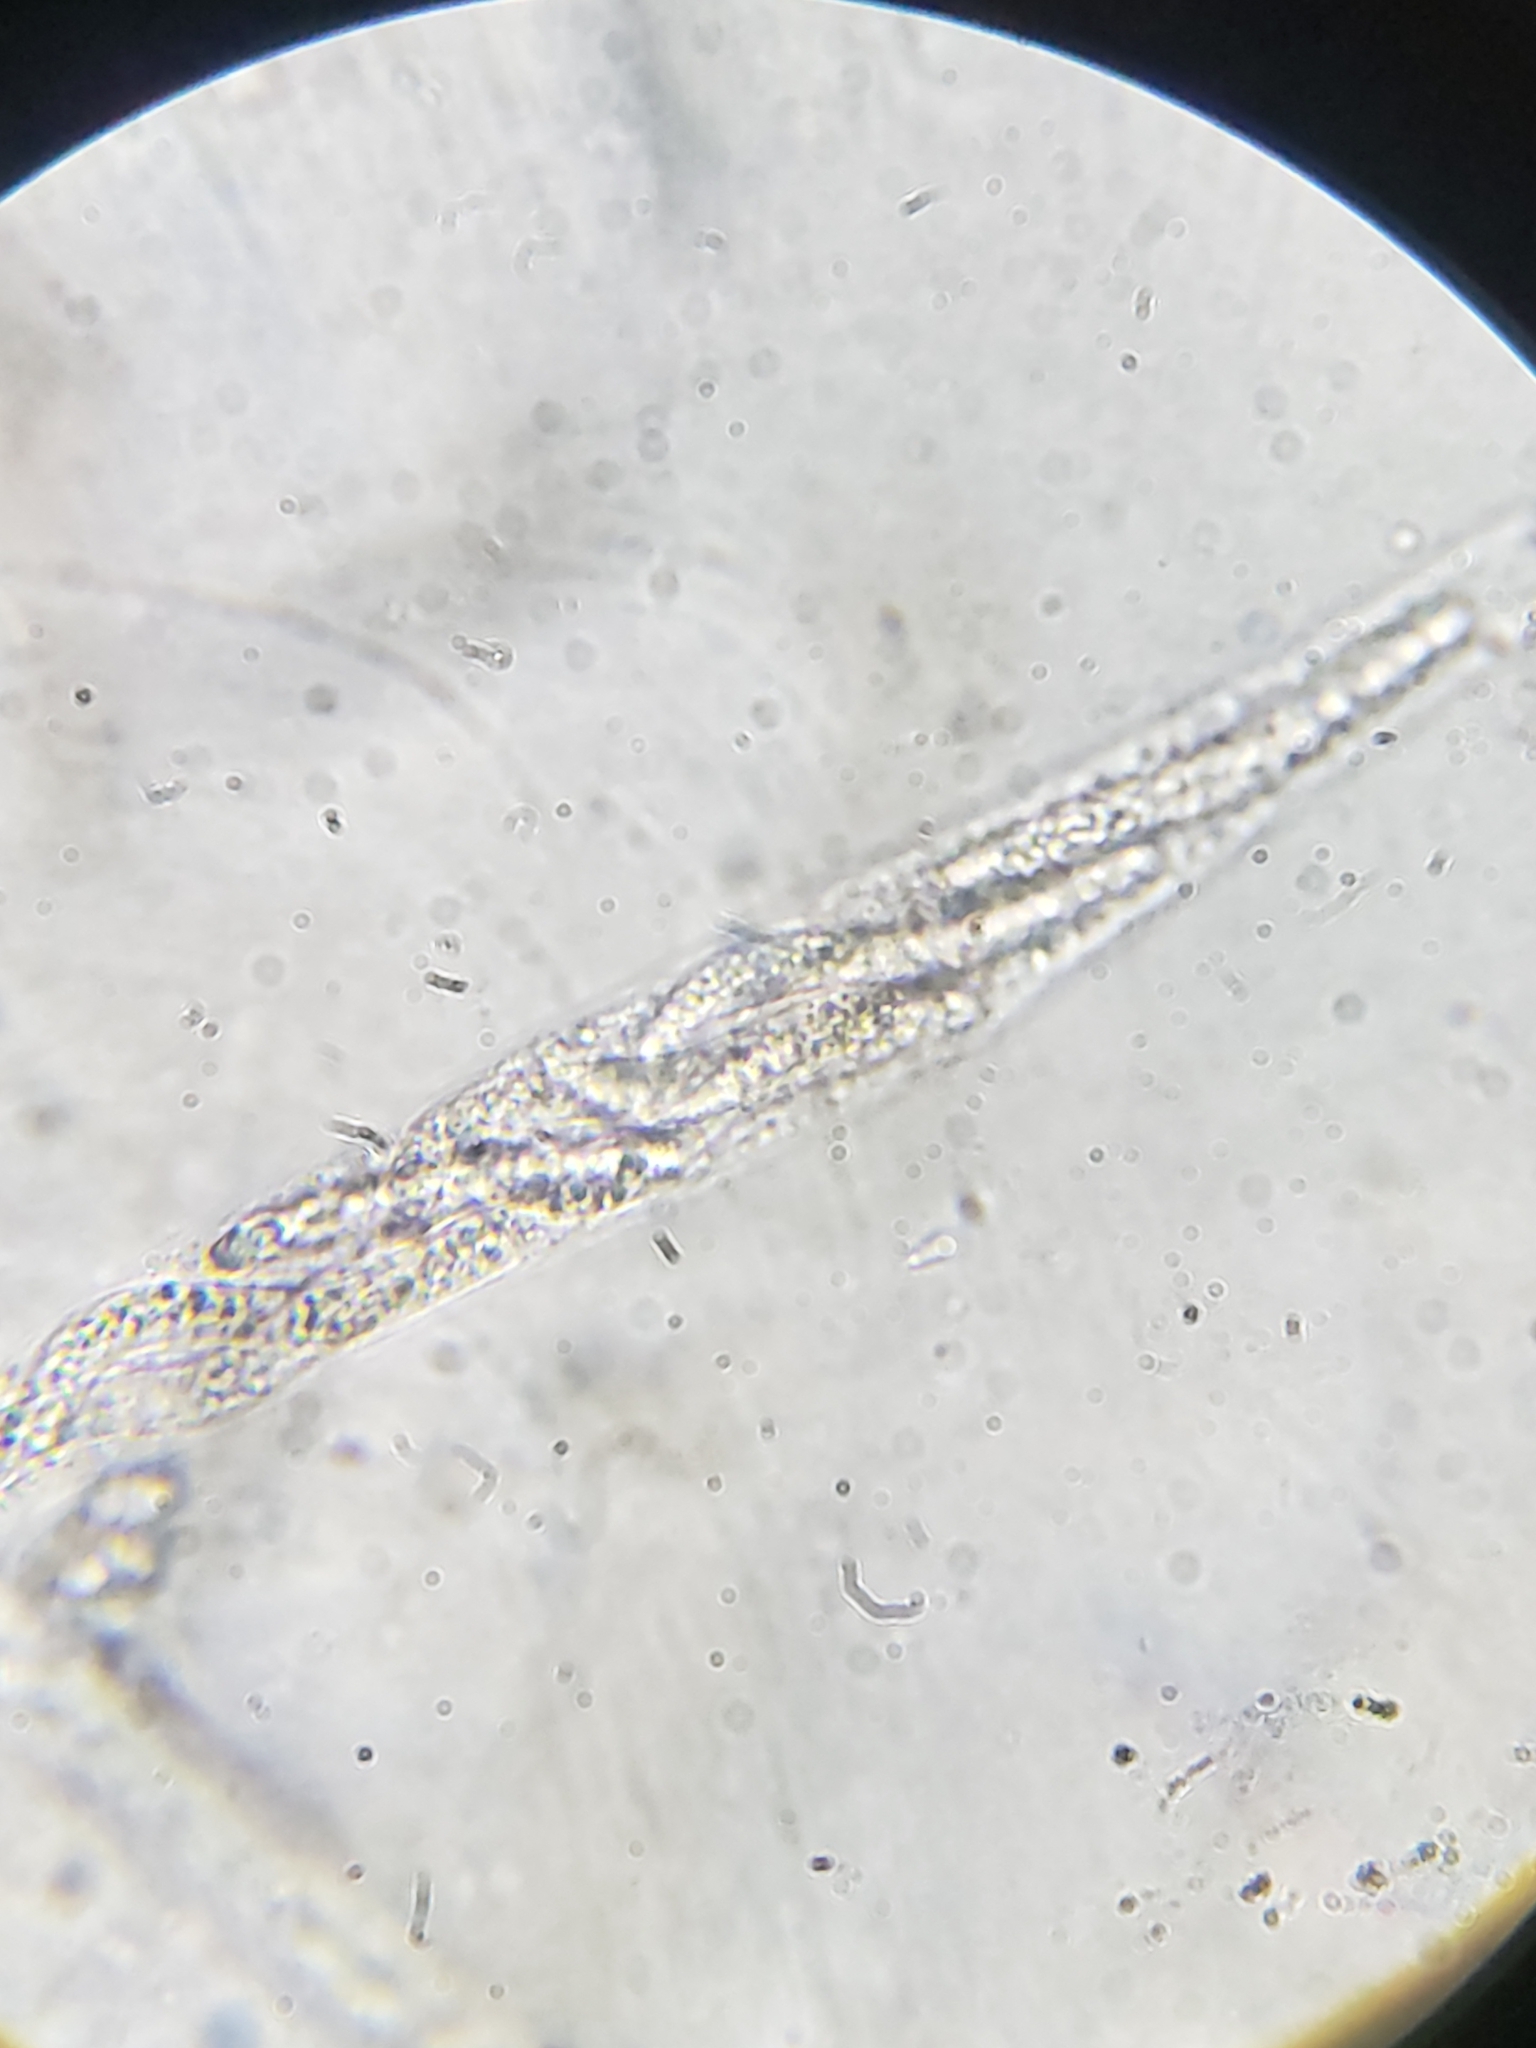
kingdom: Fungi
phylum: Ascomycota
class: Sordariomycetes
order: Sordariales
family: Lasiosphaeriaceae
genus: Lasiosphaeria
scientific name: Lasiosphaeria ovina
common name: Woolly woodwart
